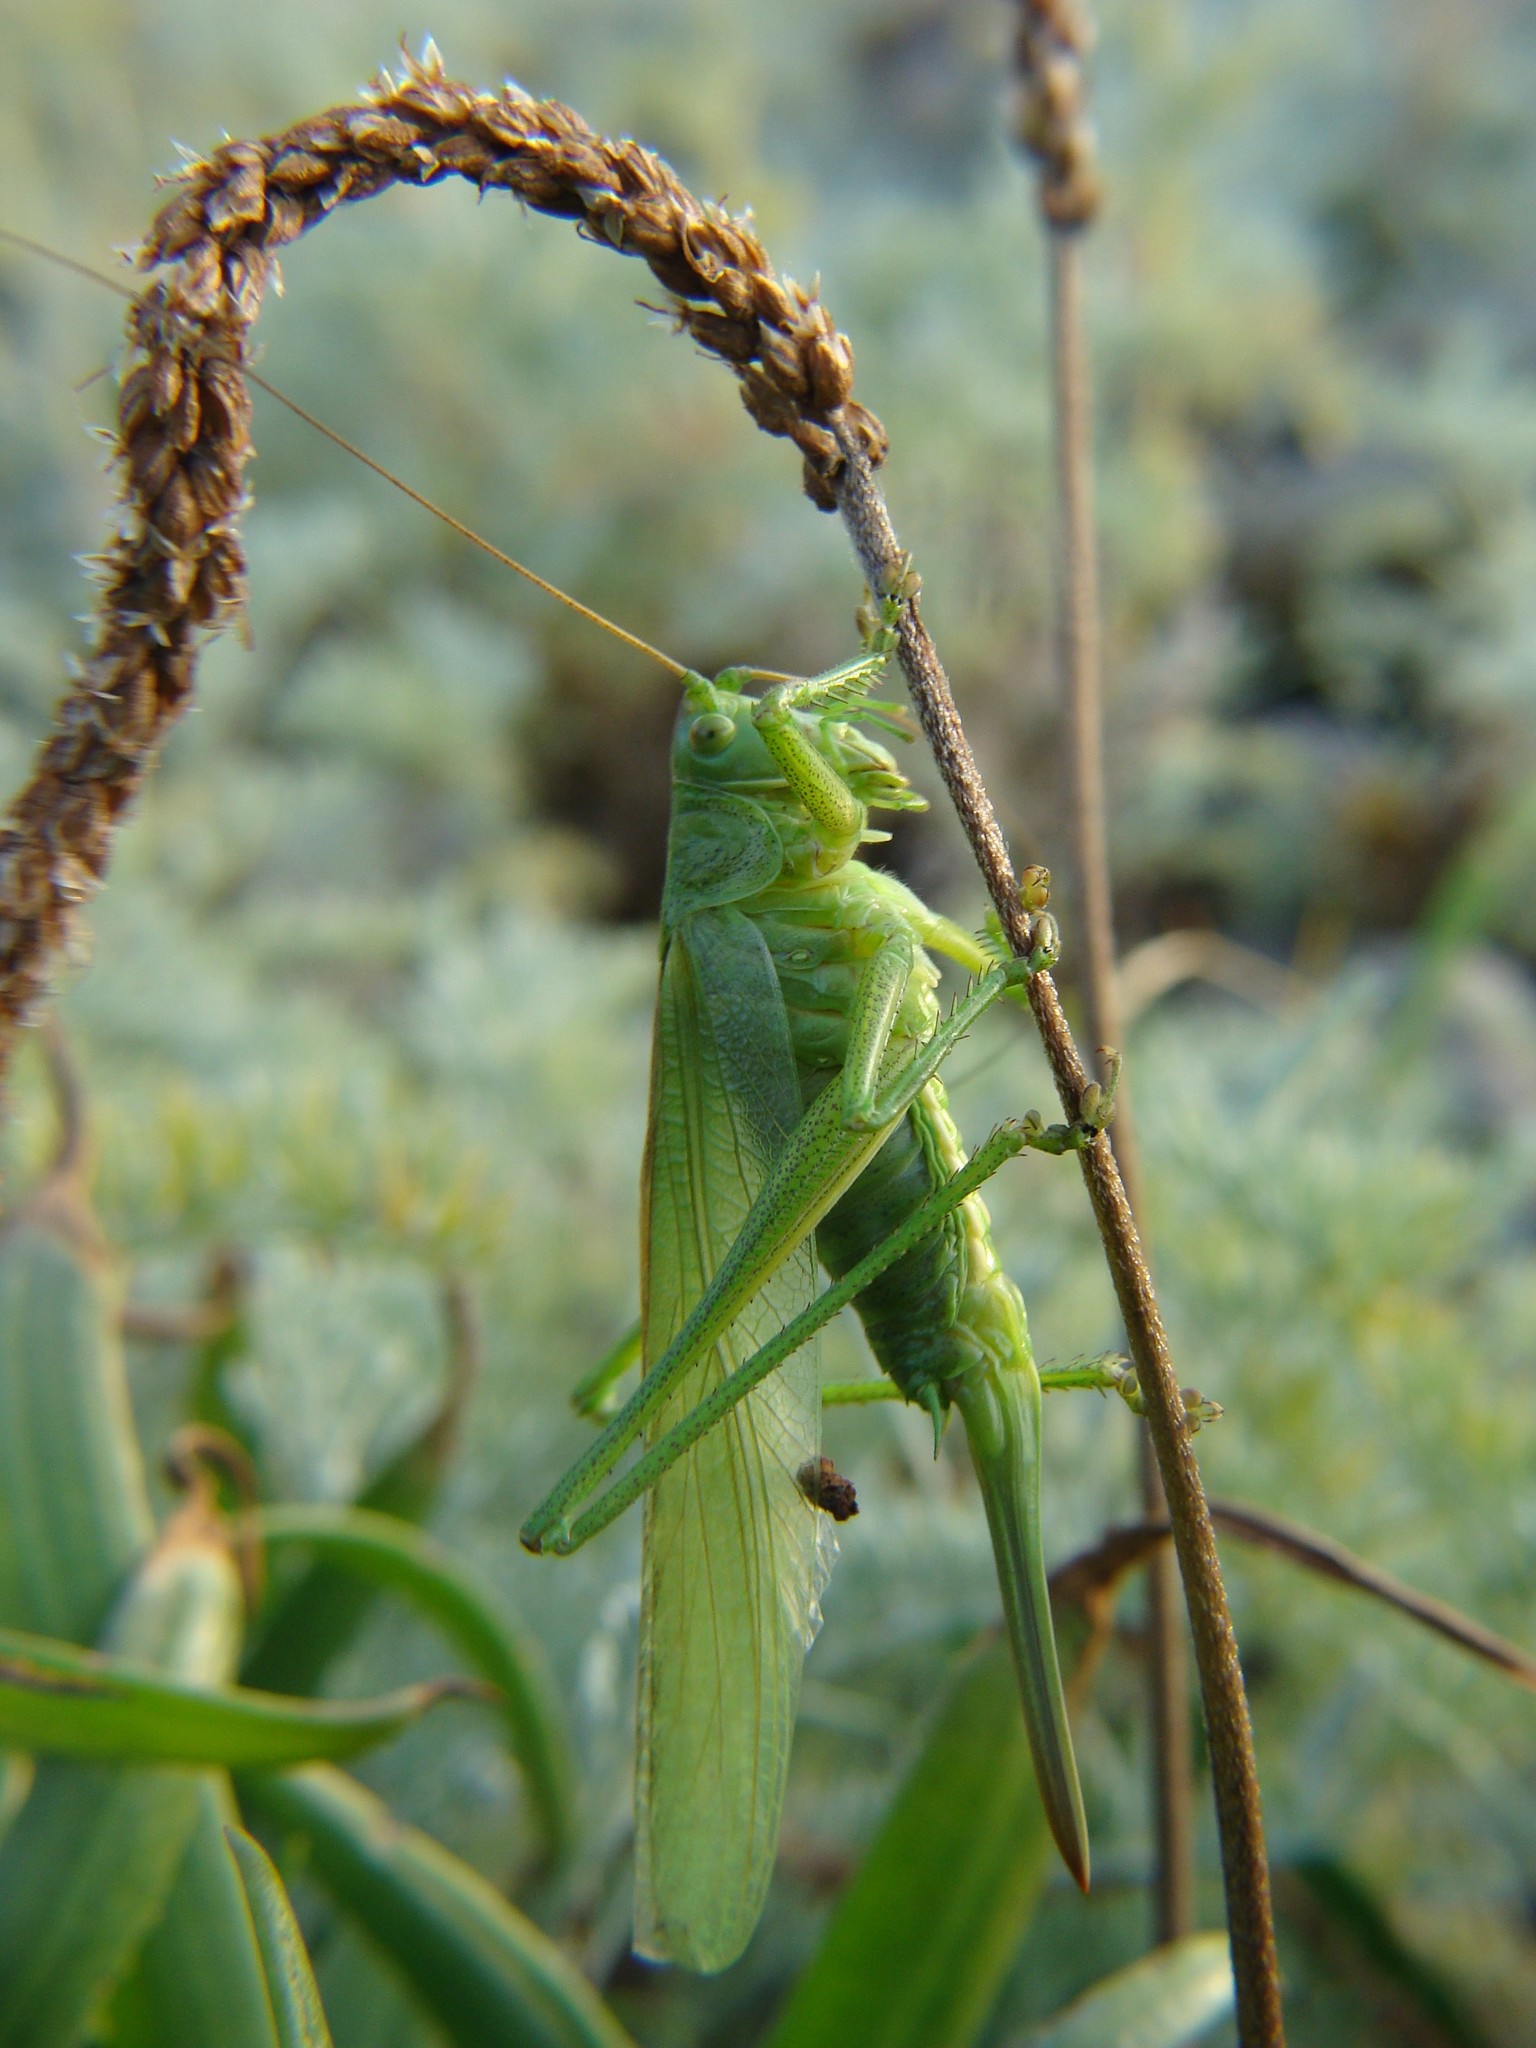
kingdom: Animalia
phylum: Arthropoda
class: Insecta
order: Orthoptera
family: Tettigoniidae
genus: Tettigonia
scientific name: Tettigonia viridissima
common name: Great green bush-cricket
